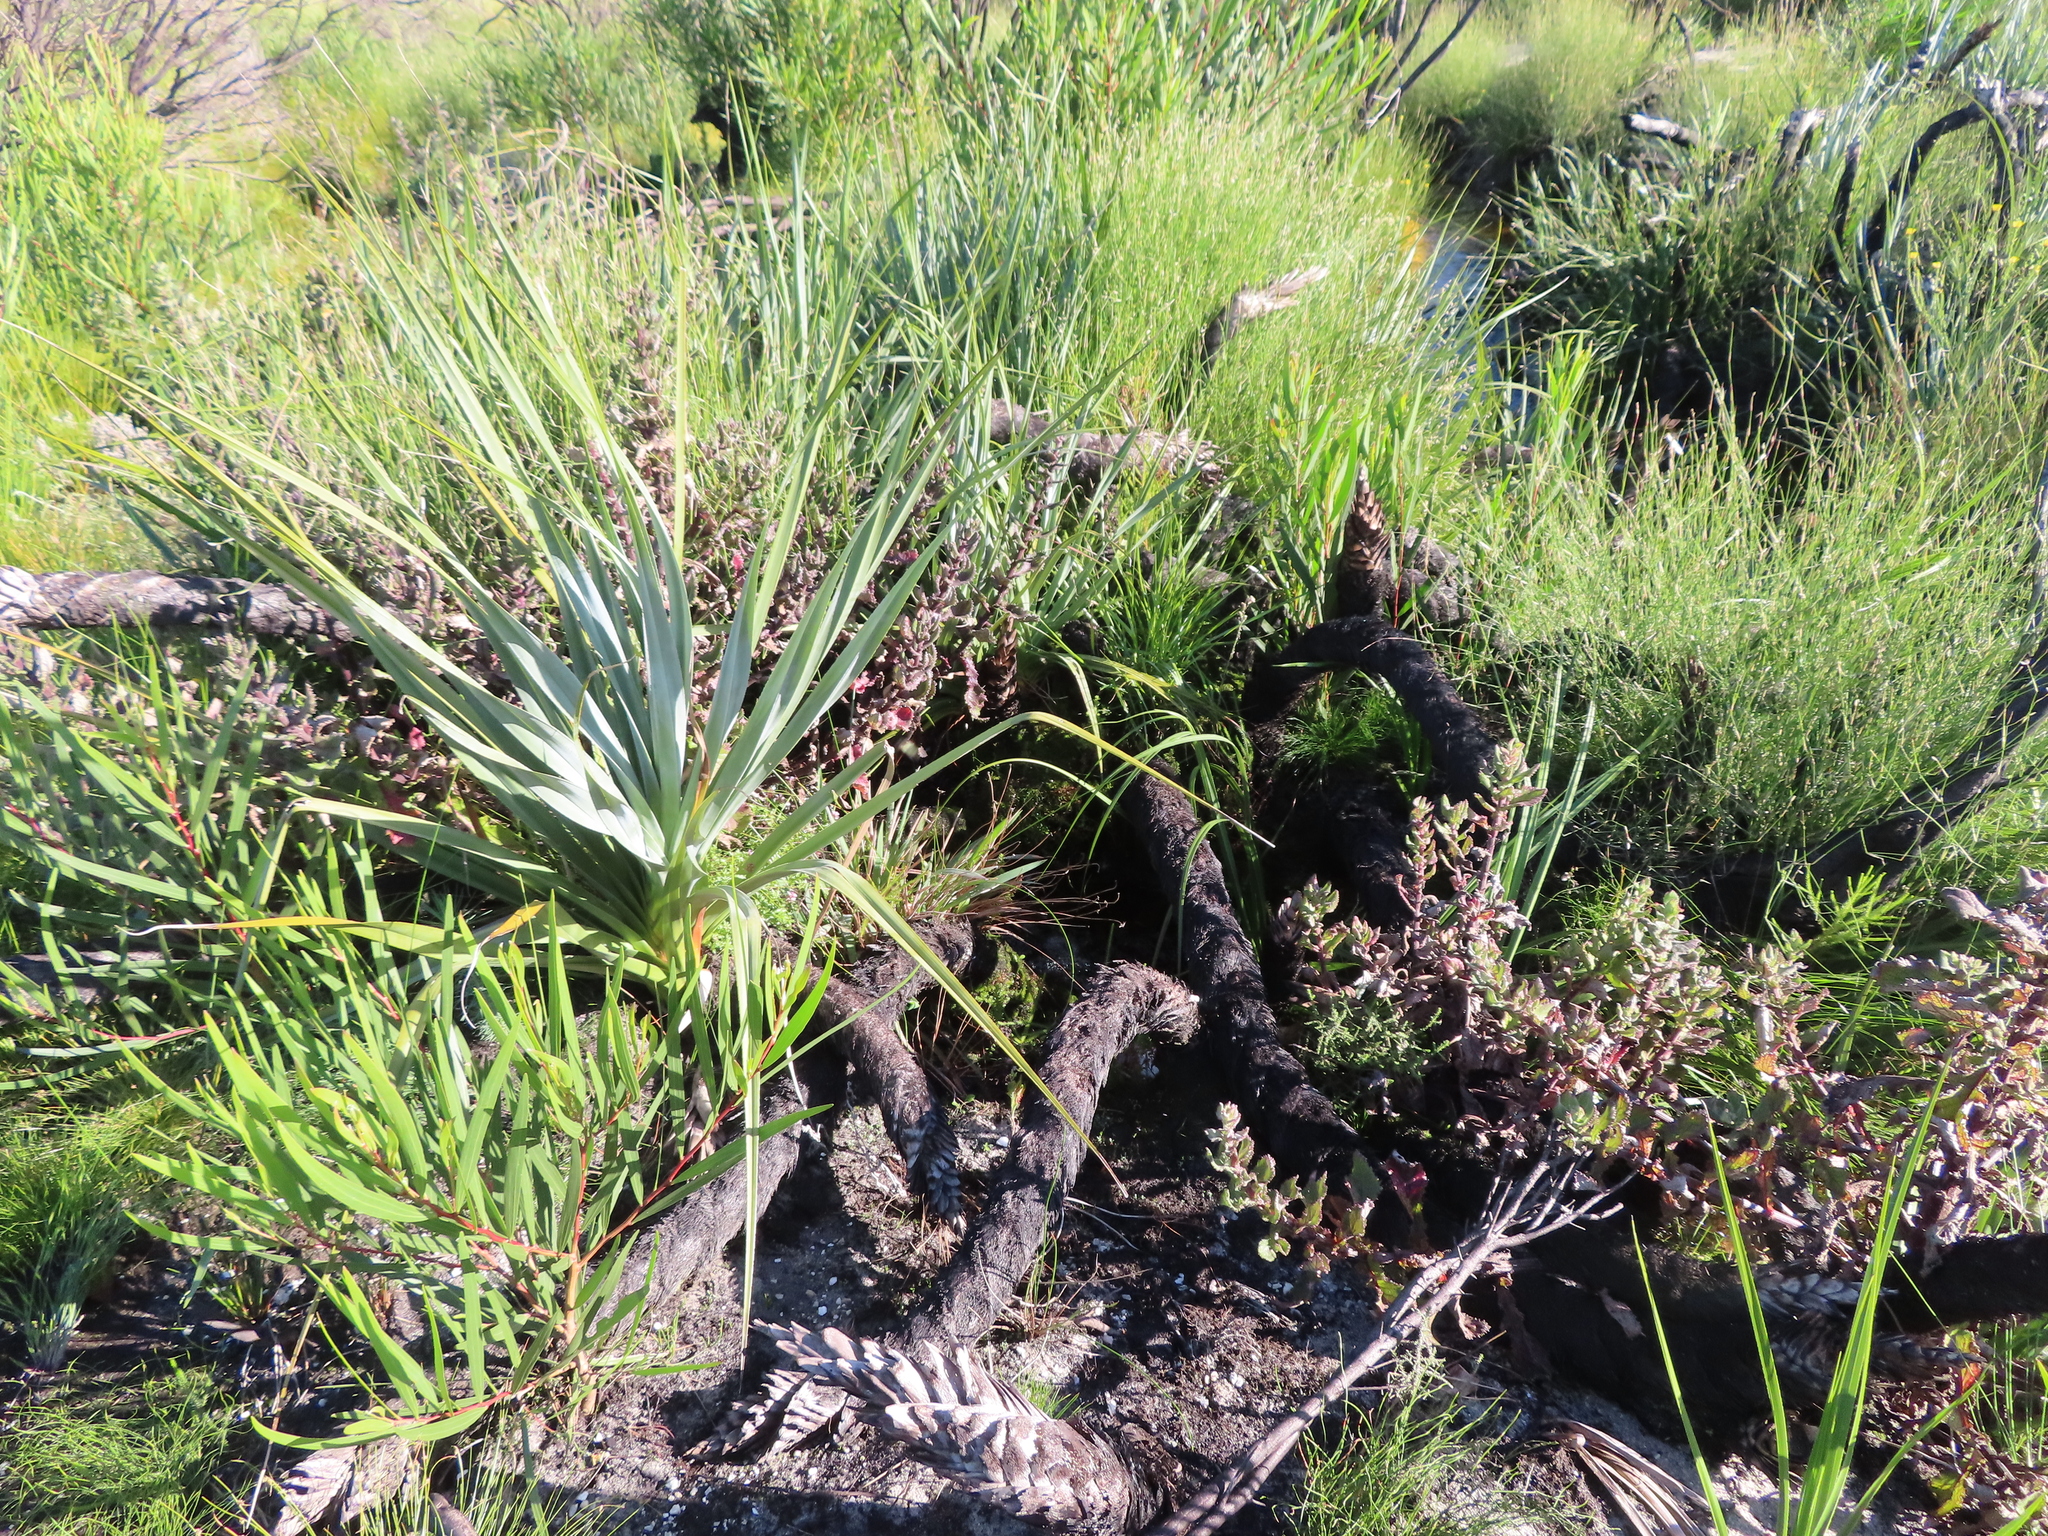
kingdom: Plantae
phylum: Tracheophyta
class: Liliopsida
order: Poales
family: Thurniaceae
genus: Prionium
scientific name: Prionium serratum
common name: Palmiet
